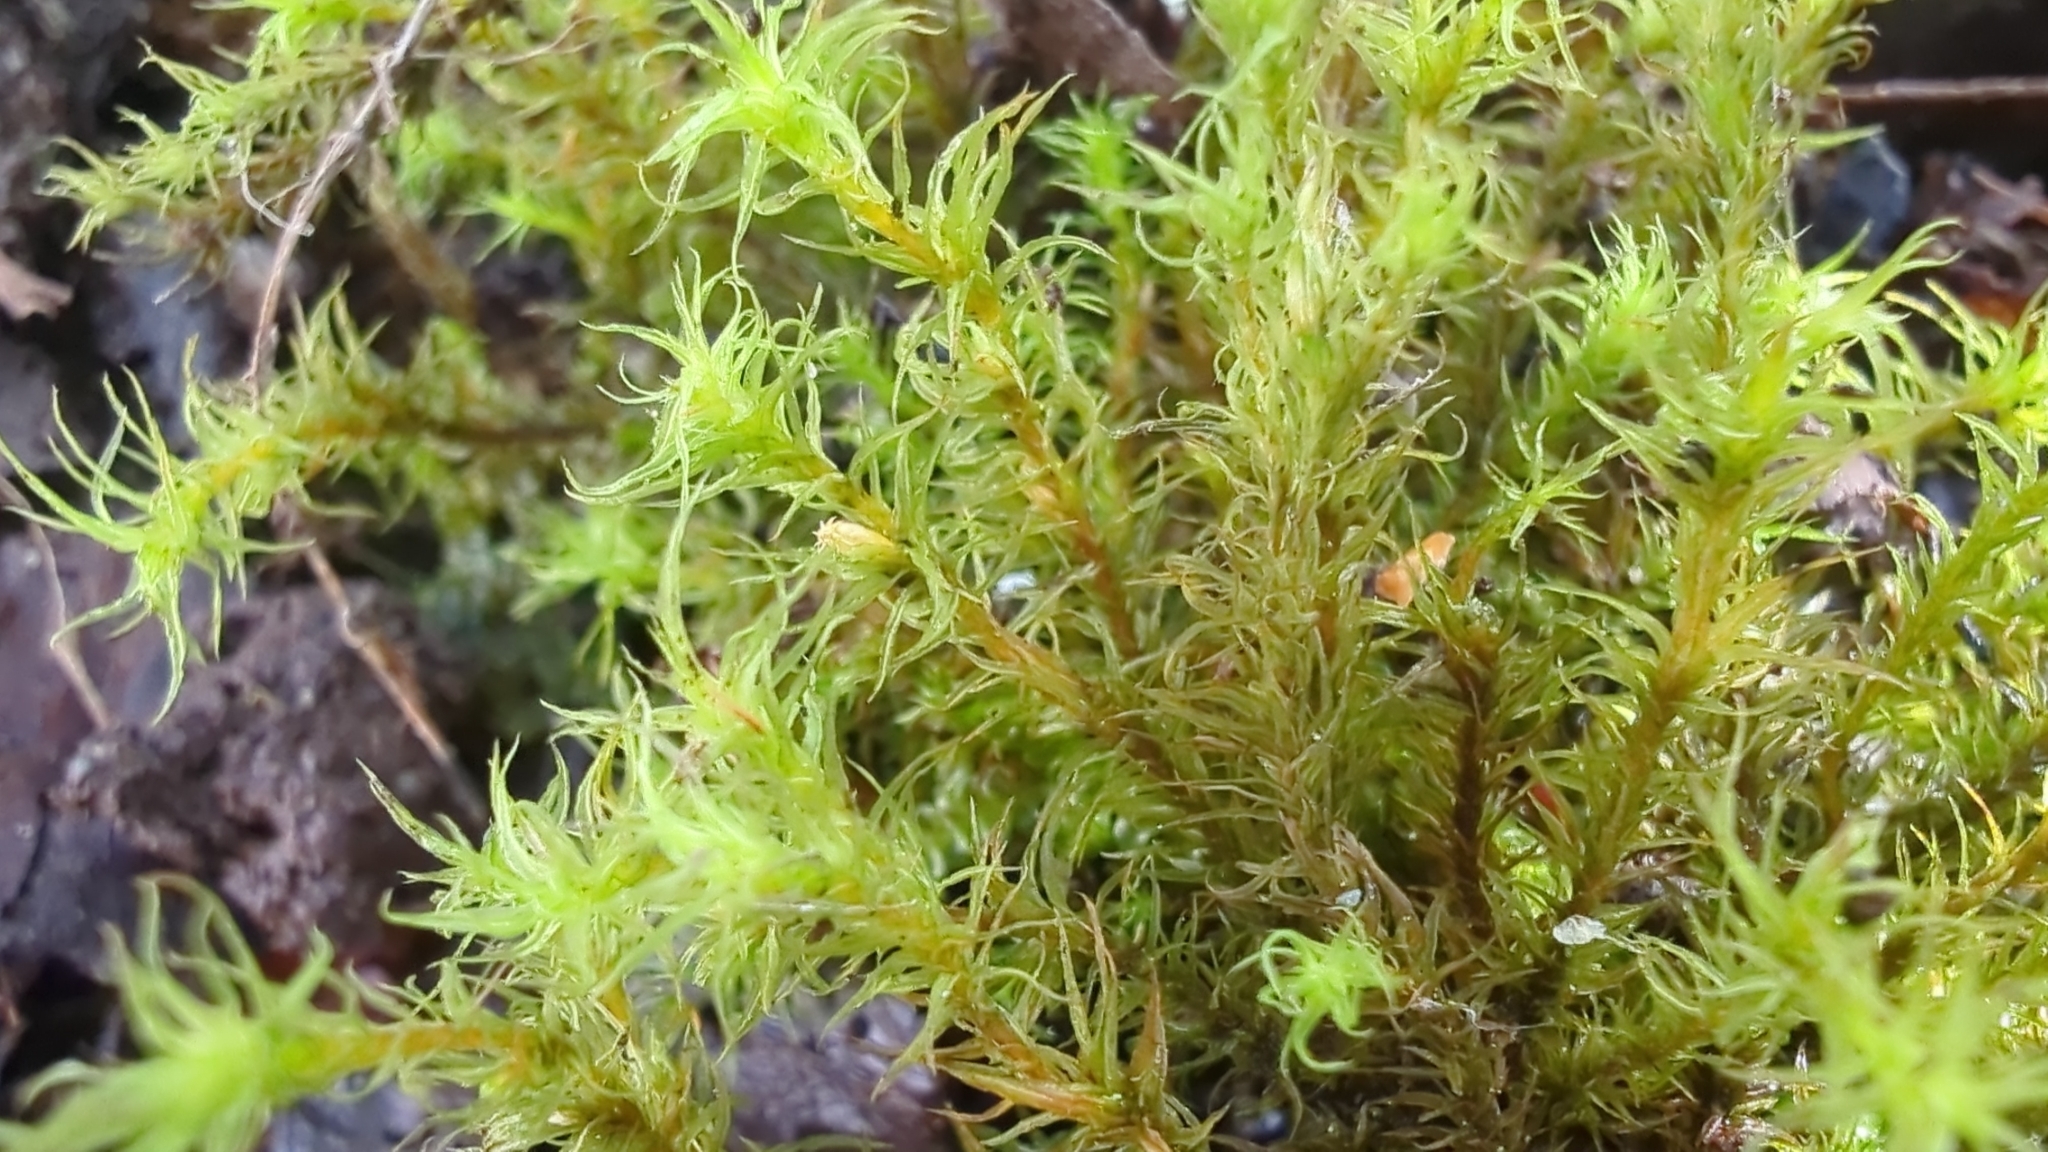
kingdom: Plantae
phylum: Bryophyta
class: Bryopsida
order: Orthotrichales
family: Orthotrichaceae
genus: Pulvigera
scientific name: Pulvigera papillosa
